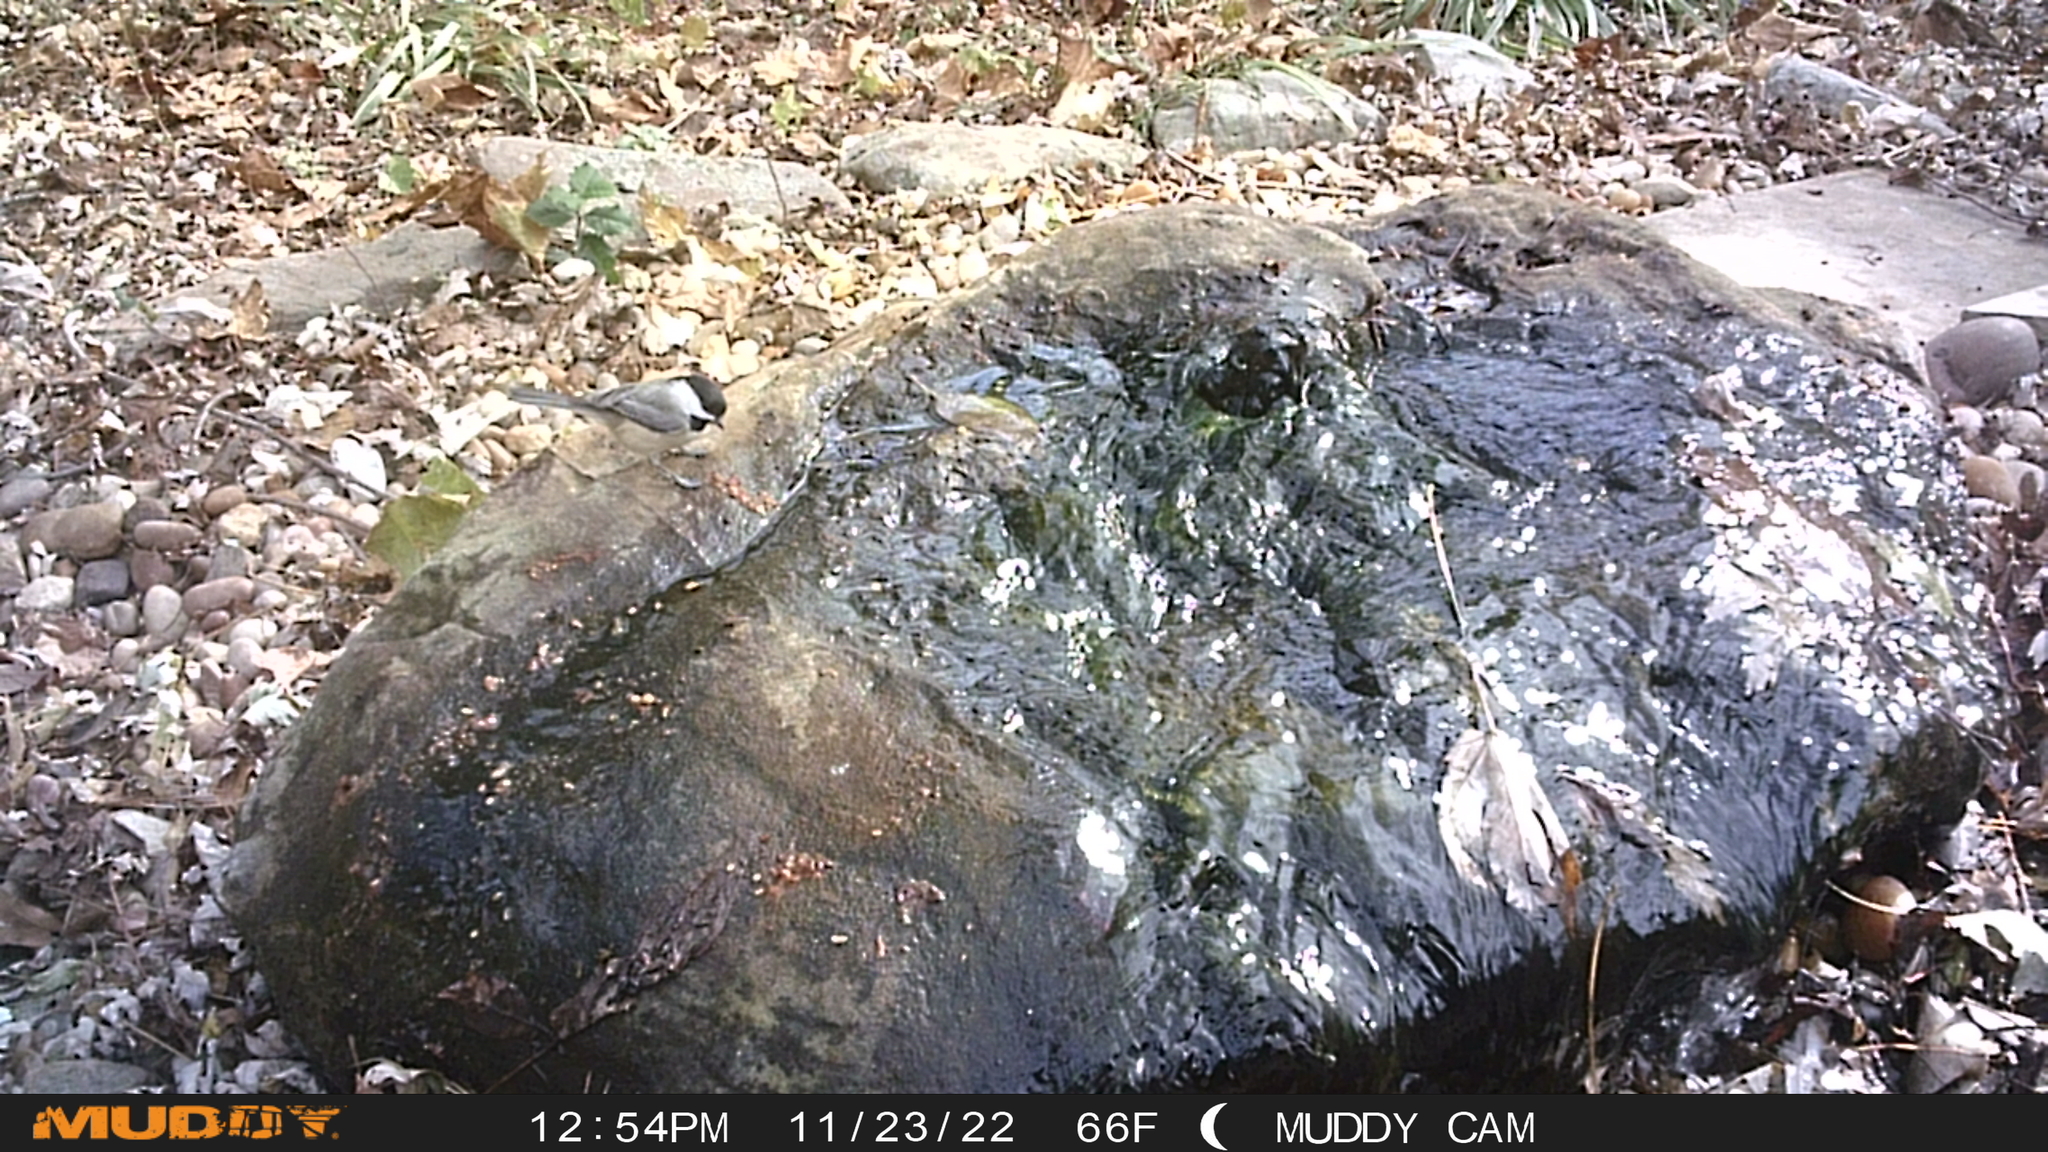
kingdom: Animalia
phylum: Chordata
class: Aves
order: Passeriformes
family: Paridae
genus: Poecile
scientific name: Poecile carolinensis
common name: Carolina chickadee
